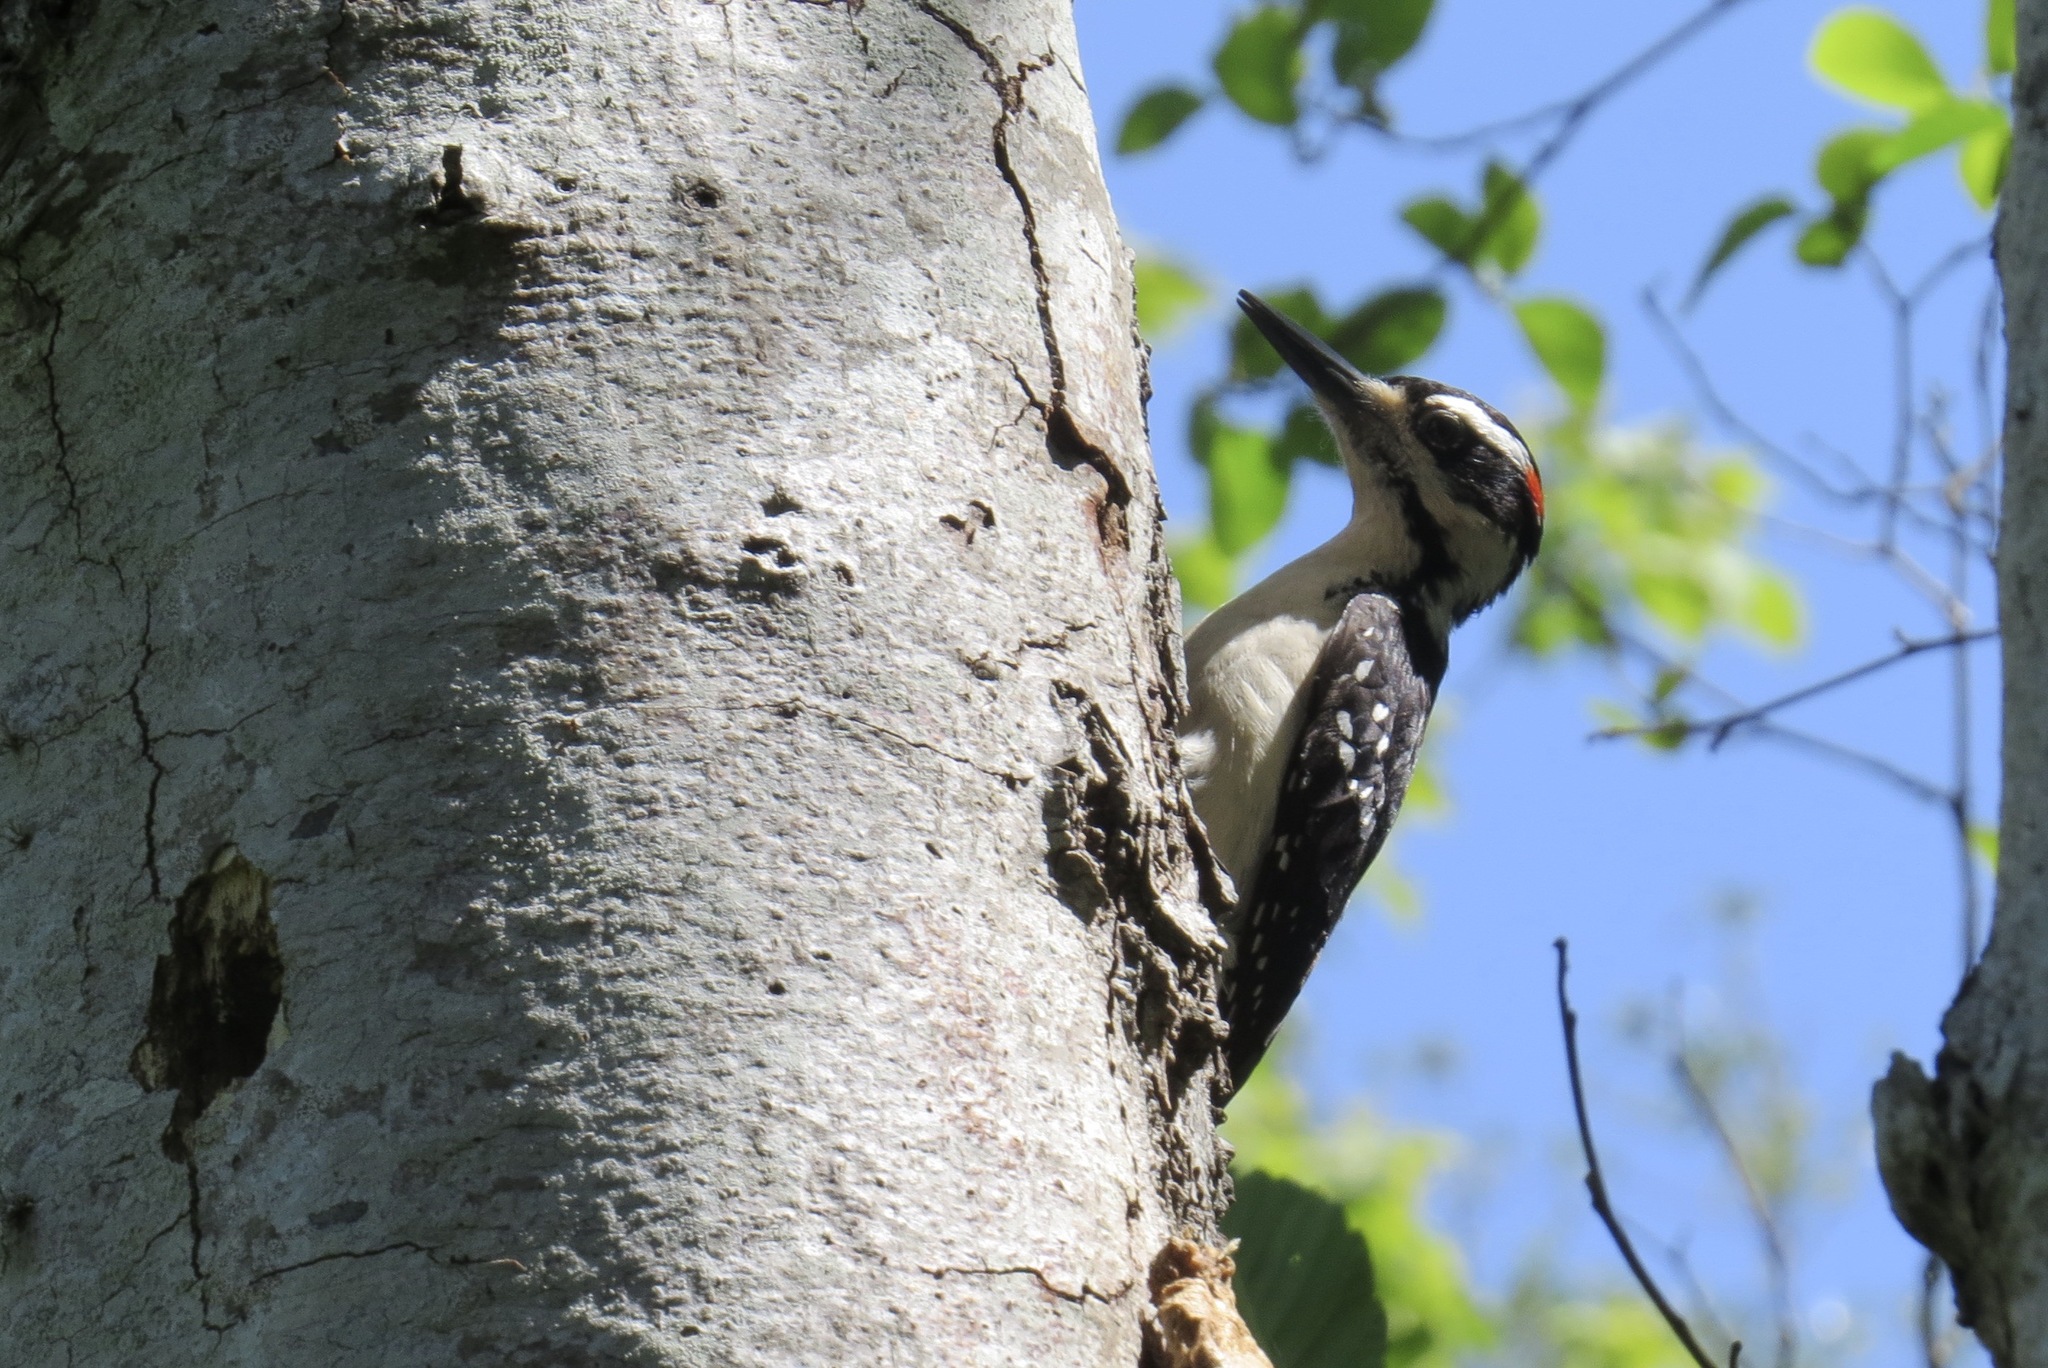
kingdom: Animalia
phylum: Chordata
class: Aves
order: Piciformes
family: Picidae
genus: Leuconotopicus
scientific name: Leuconotopicus villosus
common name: Hairy woodpecker
